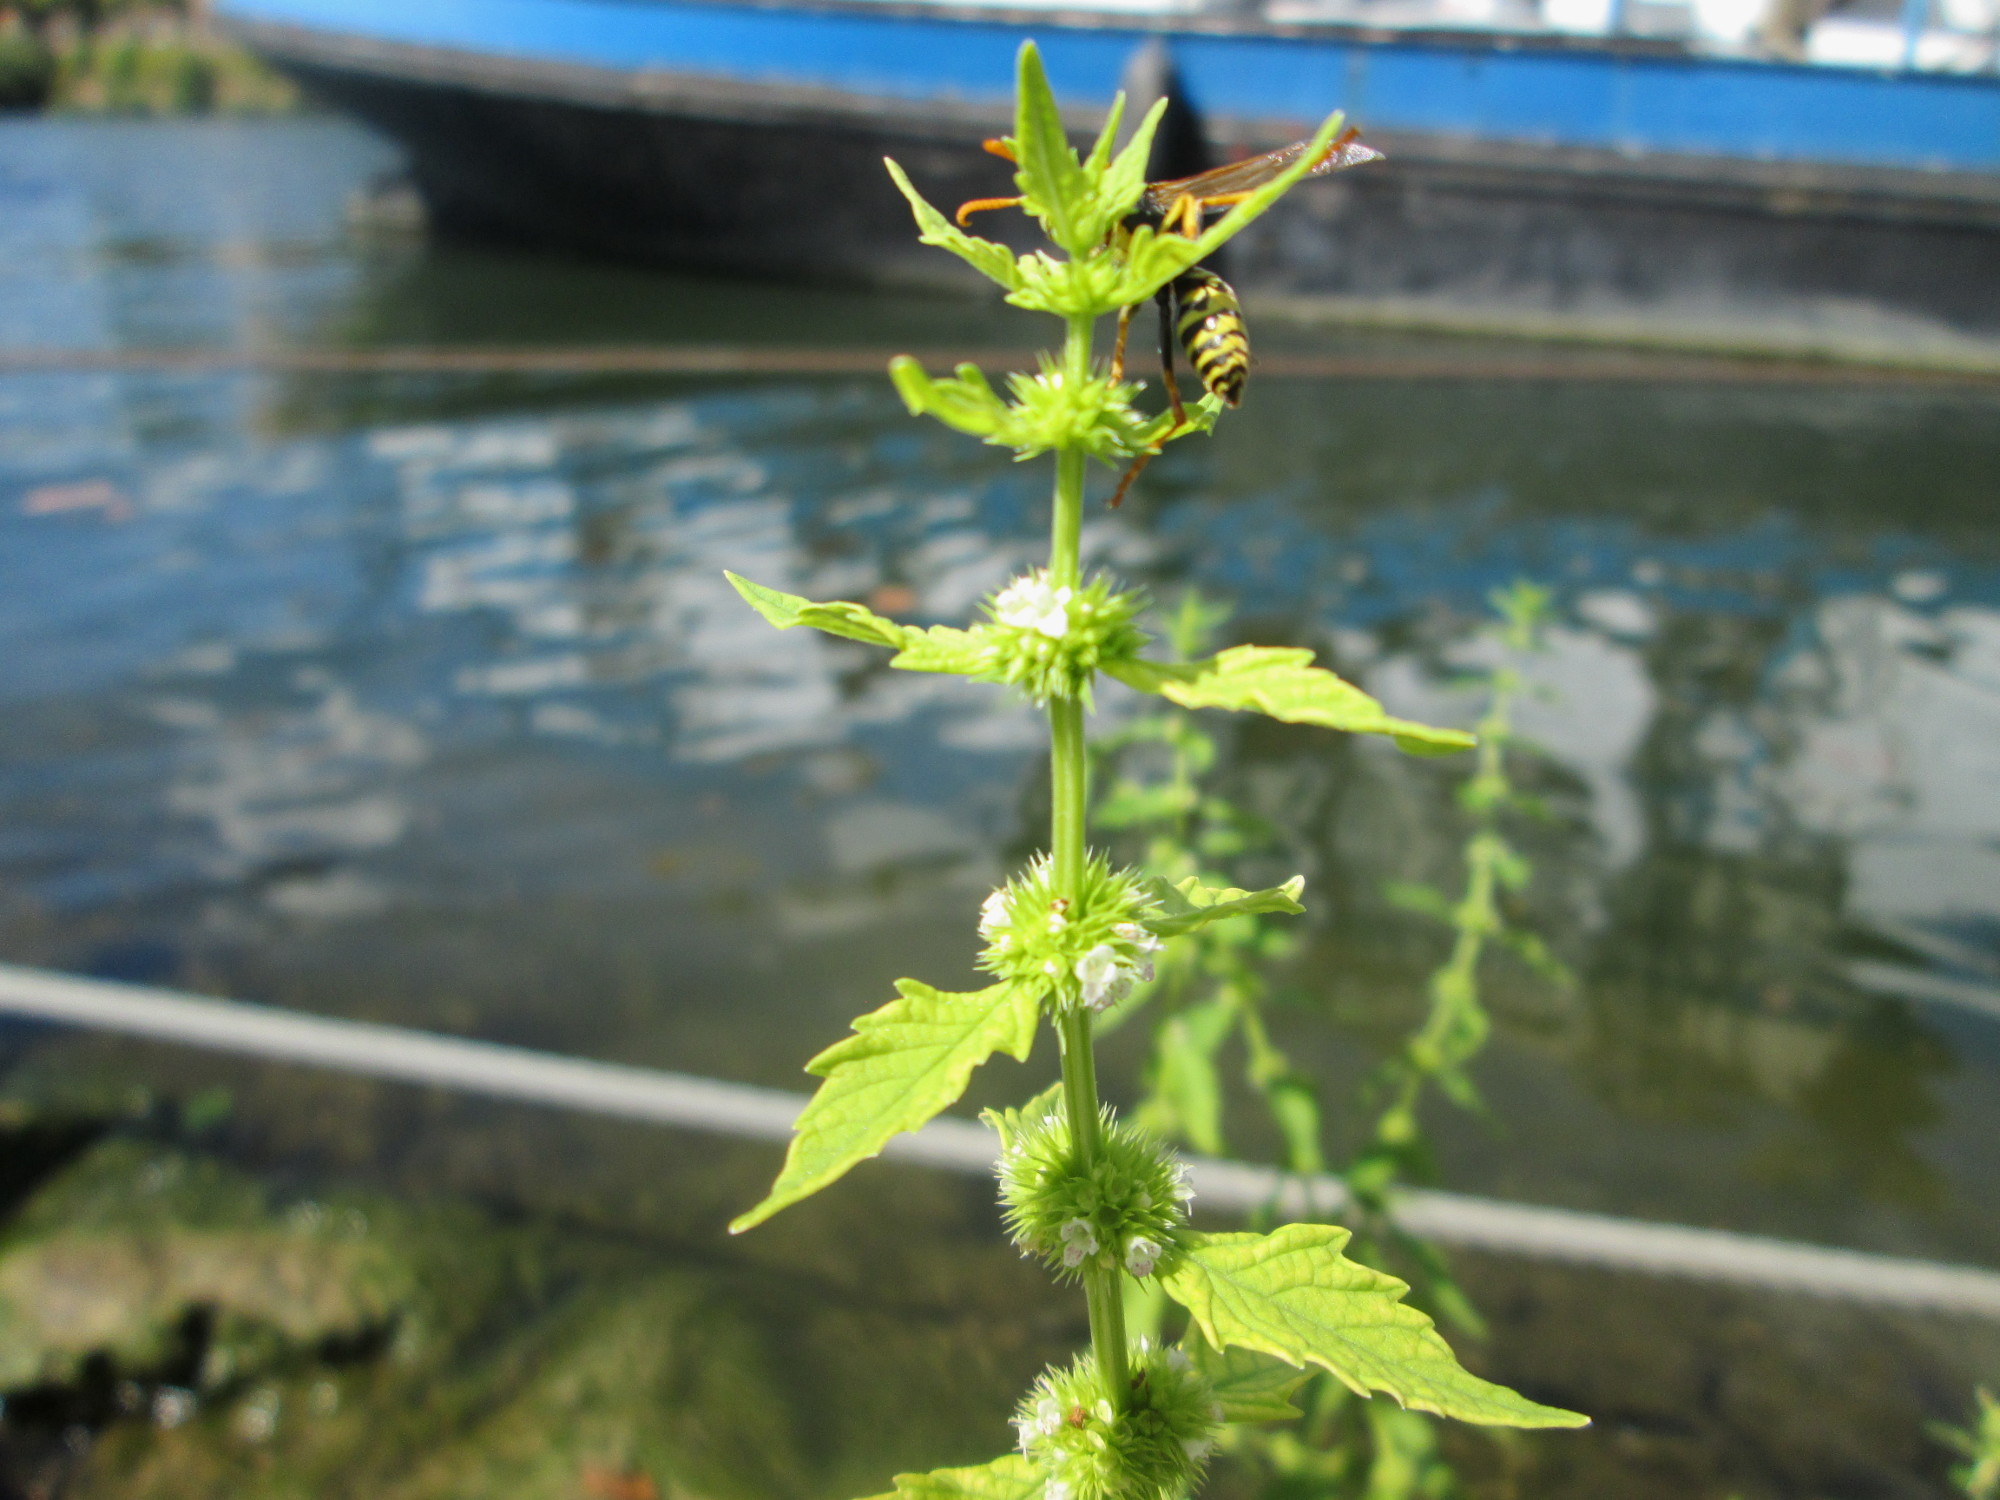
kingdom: Plantae
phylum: Tracheophyta
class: Magnoliopsida
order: Lamiales
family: Lamiaceae
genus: Lycopus
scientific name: Lycopus europaeus
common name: European bugleweed
